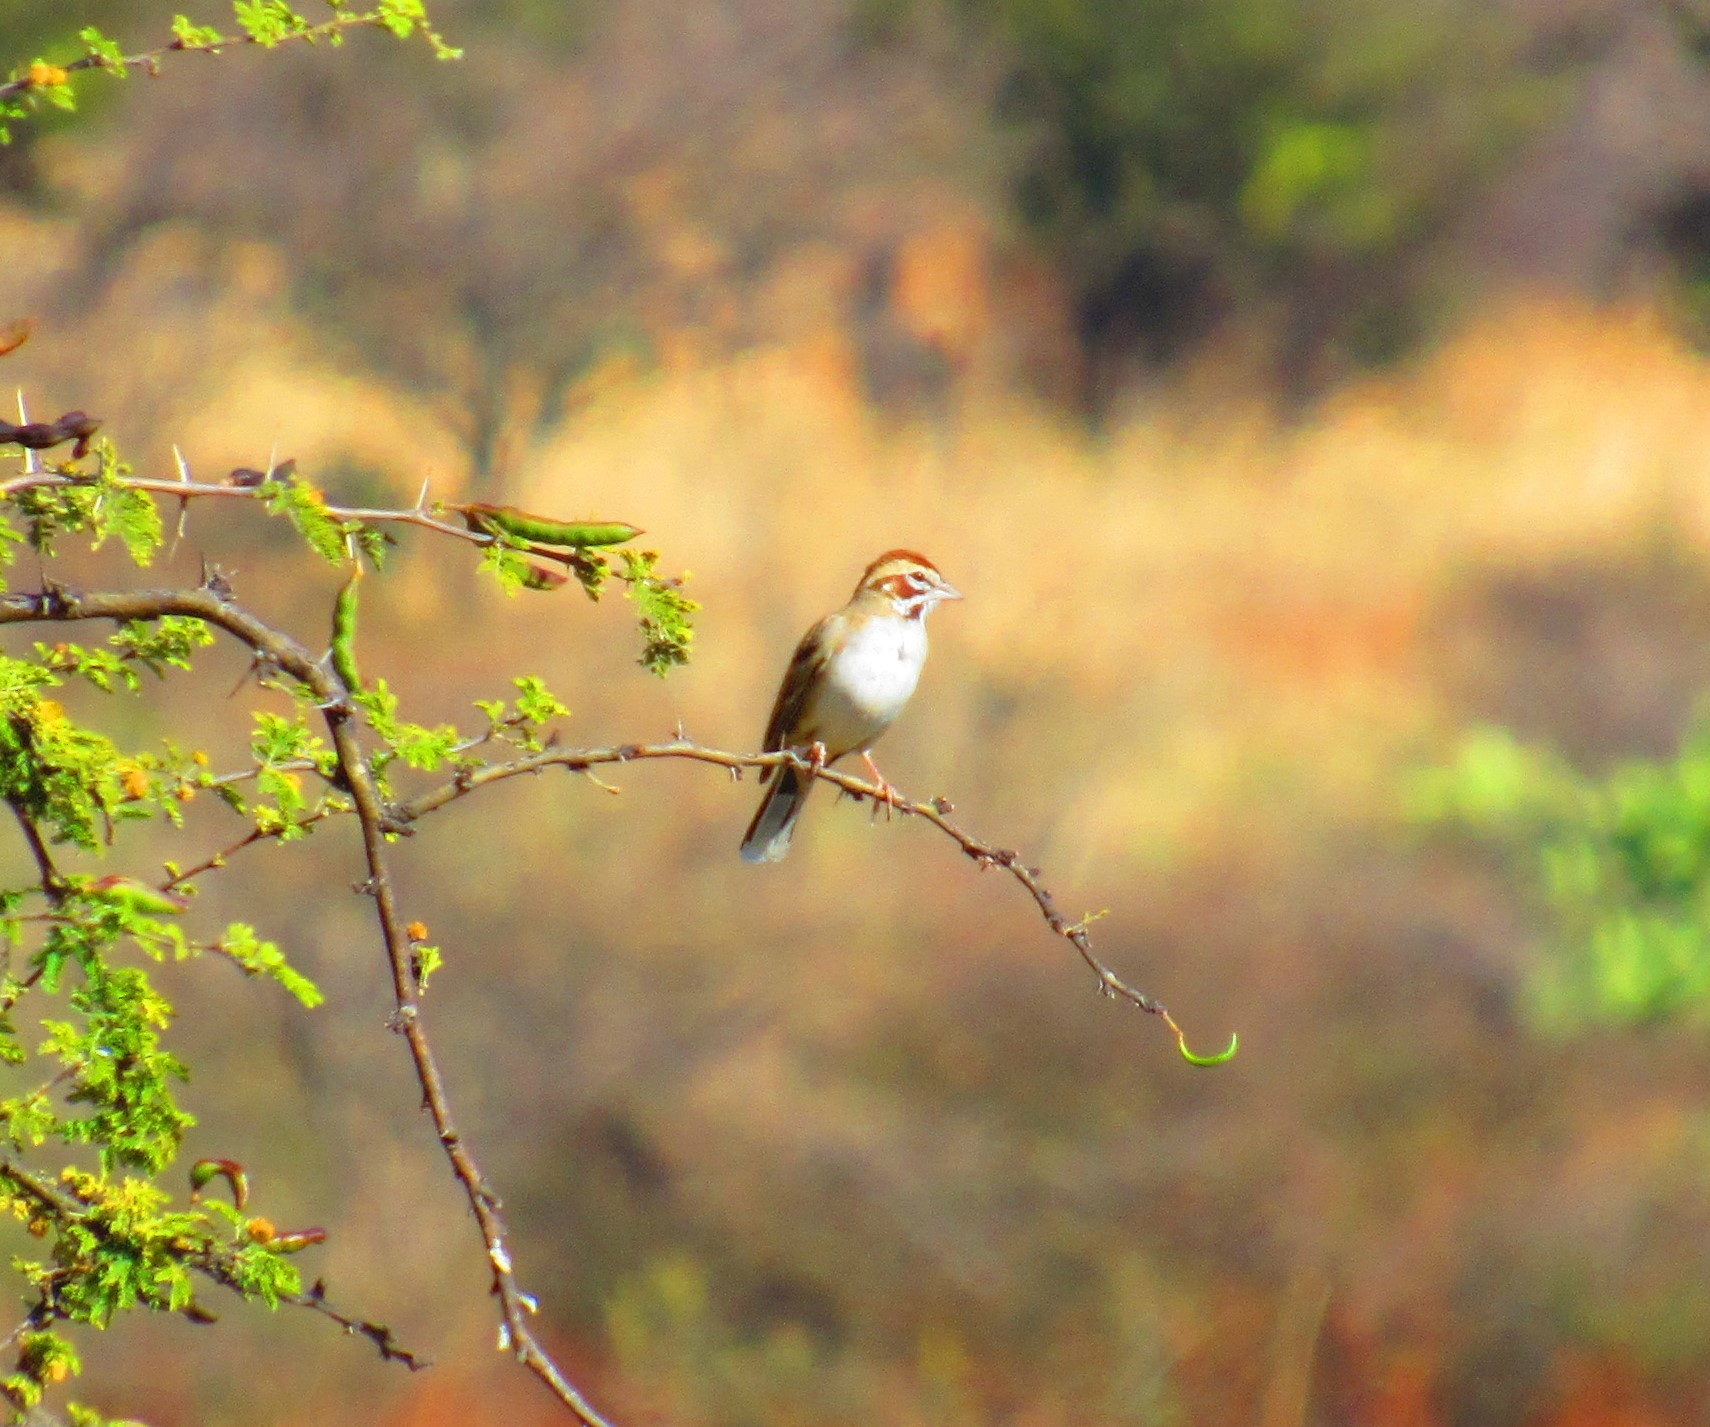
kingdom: Animalia
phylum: Chordata
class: Aves
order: Passeriformes
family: Passerellidae
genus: Chondestes
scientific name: Chondestes grammacus
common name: Lark sparrow
